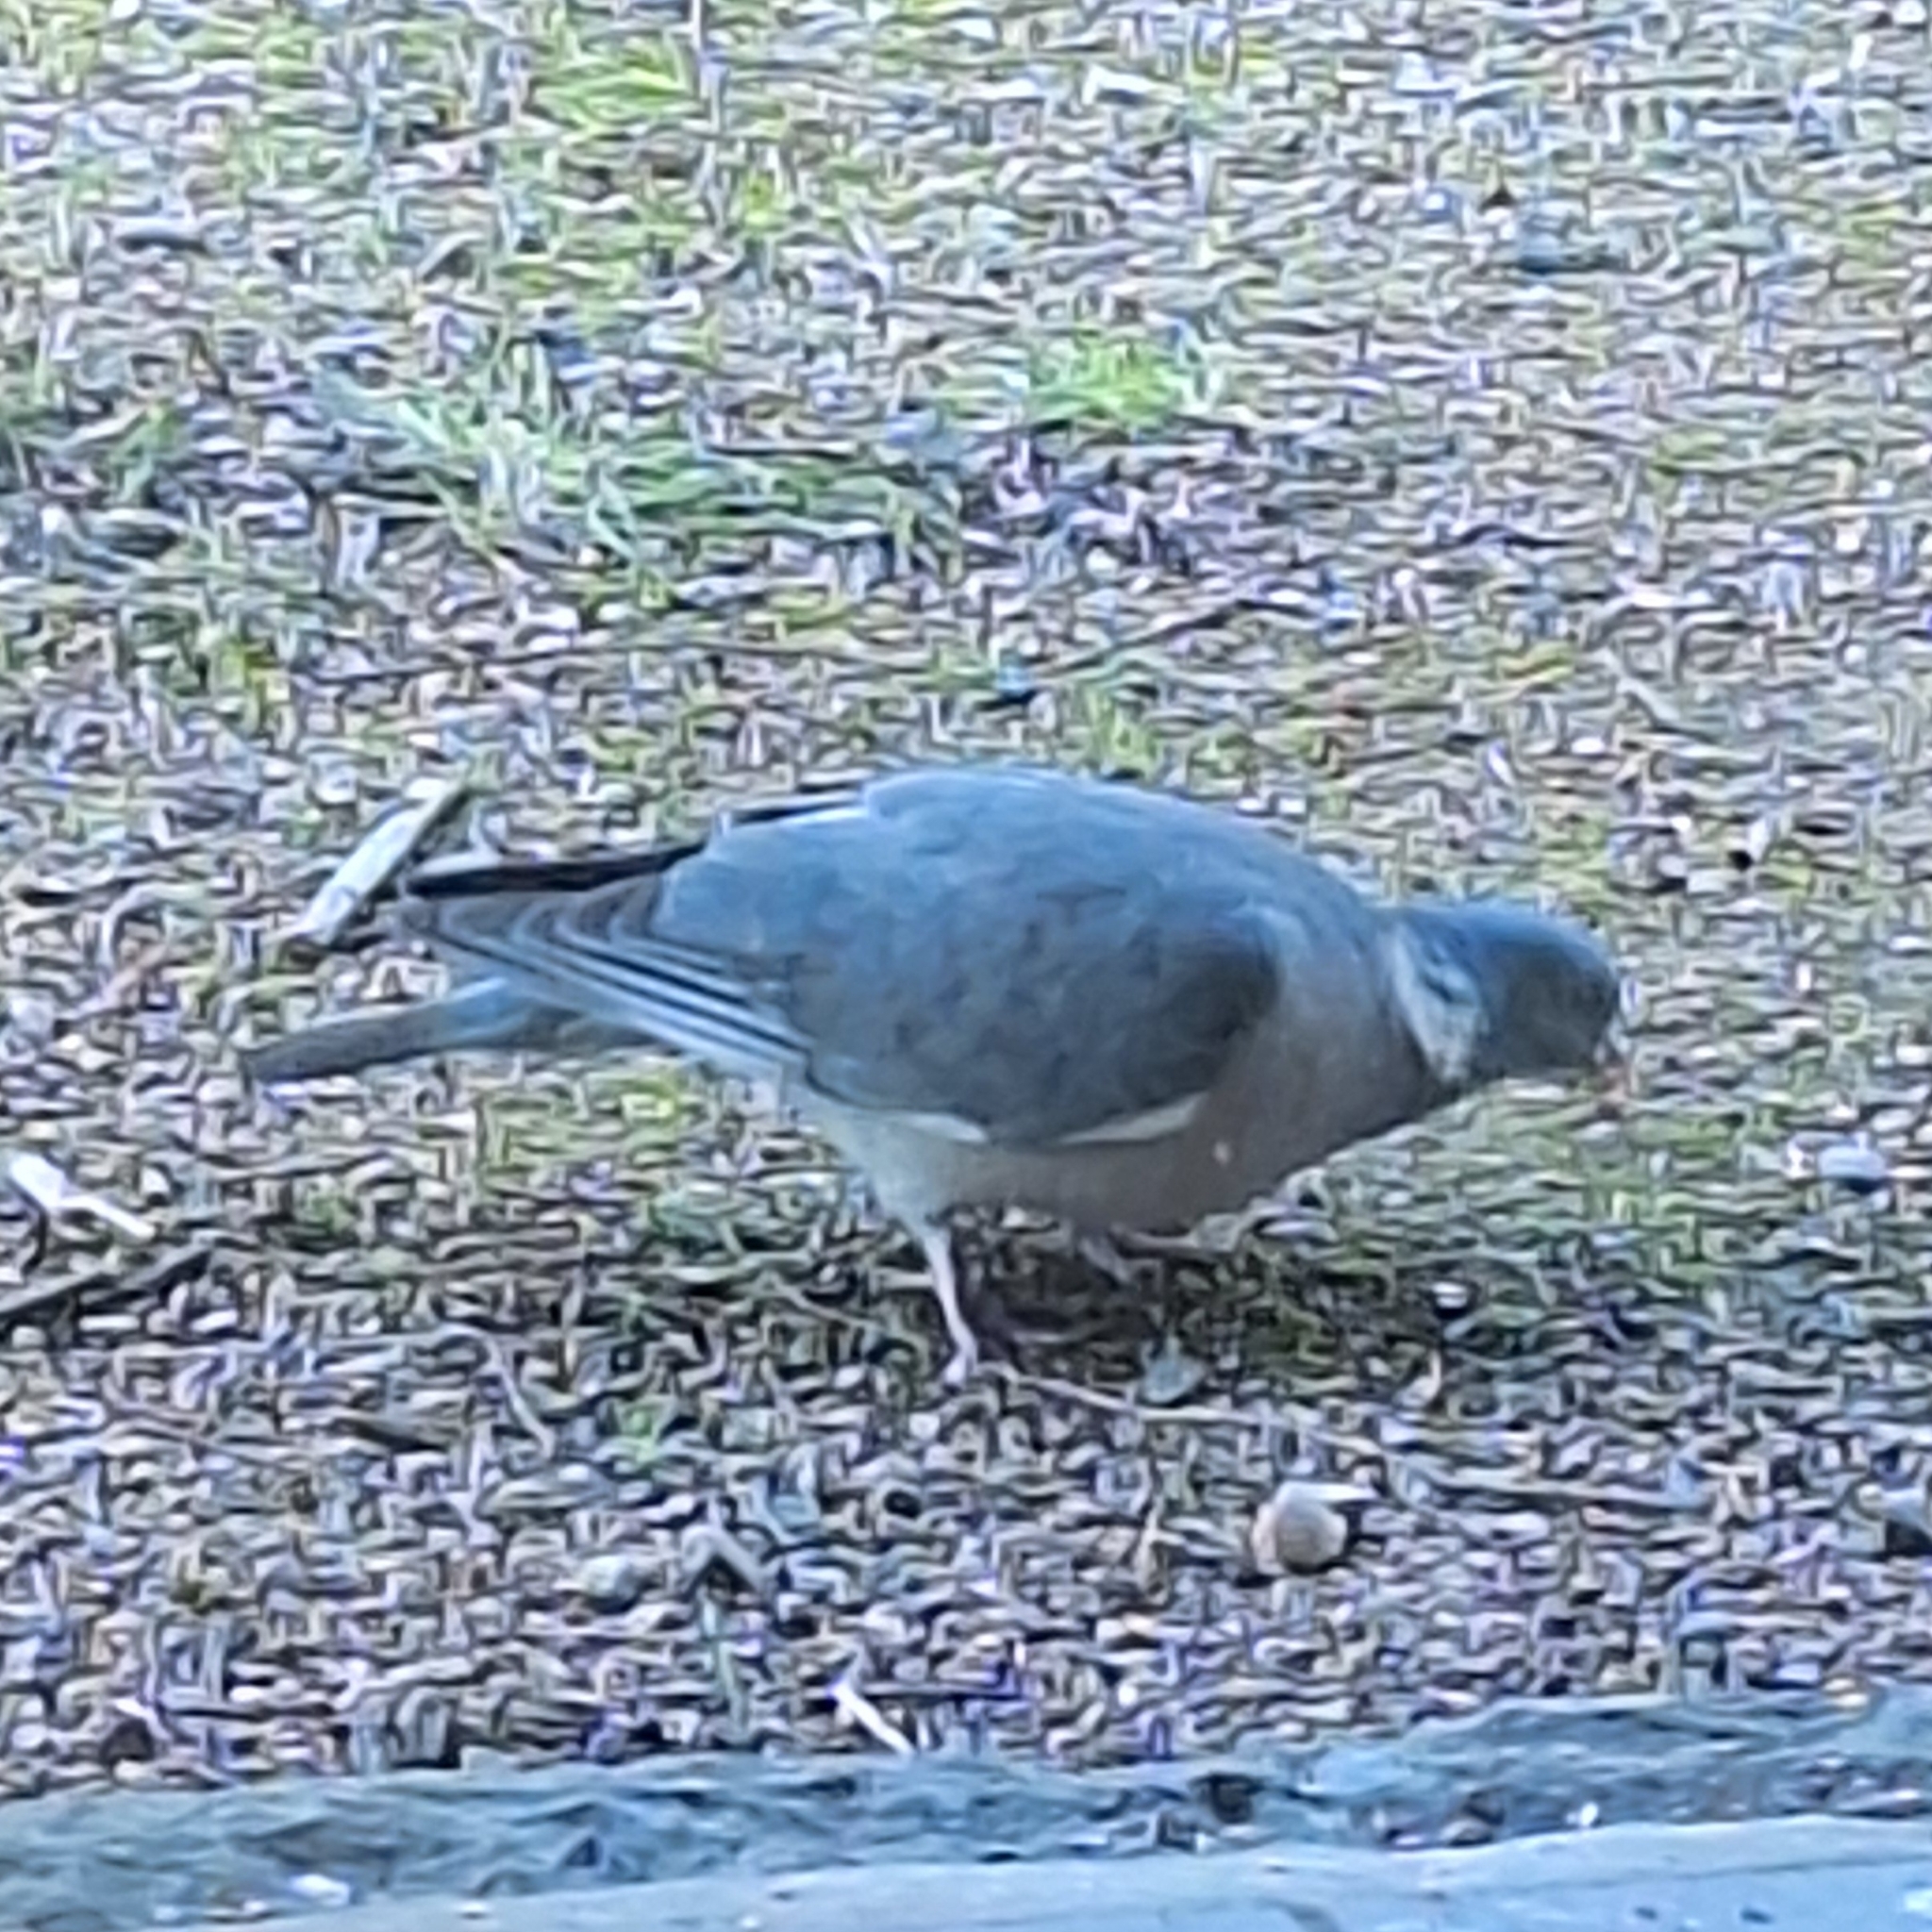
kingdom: Animalia
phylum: Chordata
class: Aves
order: Columbiformes
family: Columbidae
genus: Columba
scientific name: Columba palumbus
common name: Common wood pigeon
